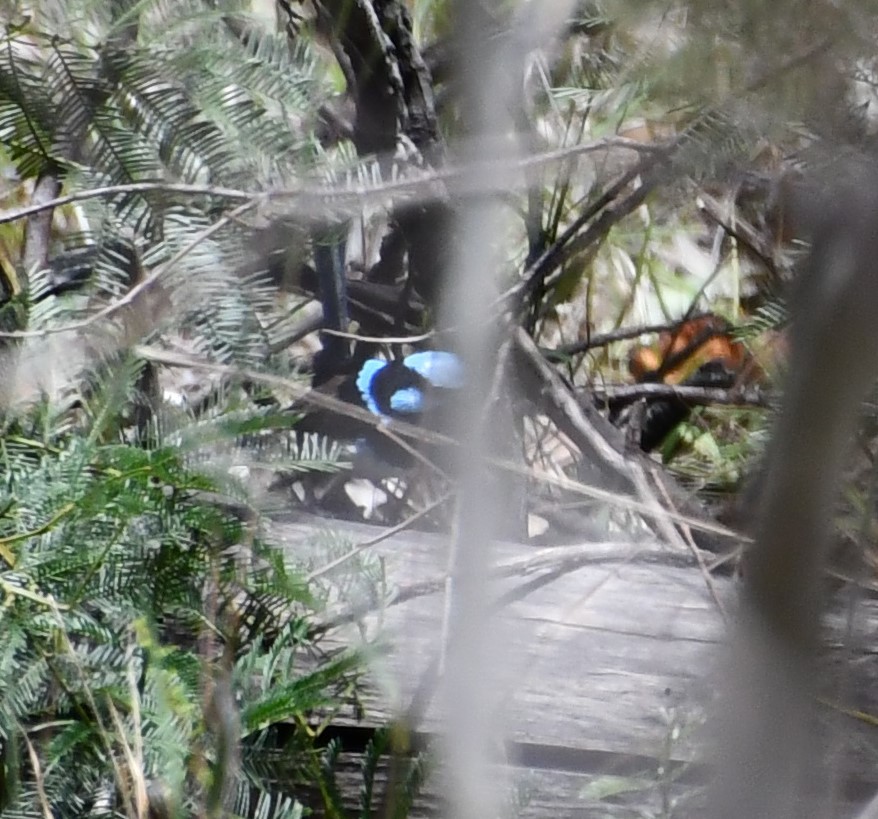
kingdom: Animalia
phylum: Chordata
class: Aves
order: Passeriformes
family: Maluridae
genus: Malurus
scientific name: Malurus cyaneus
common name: Superb fairywren
